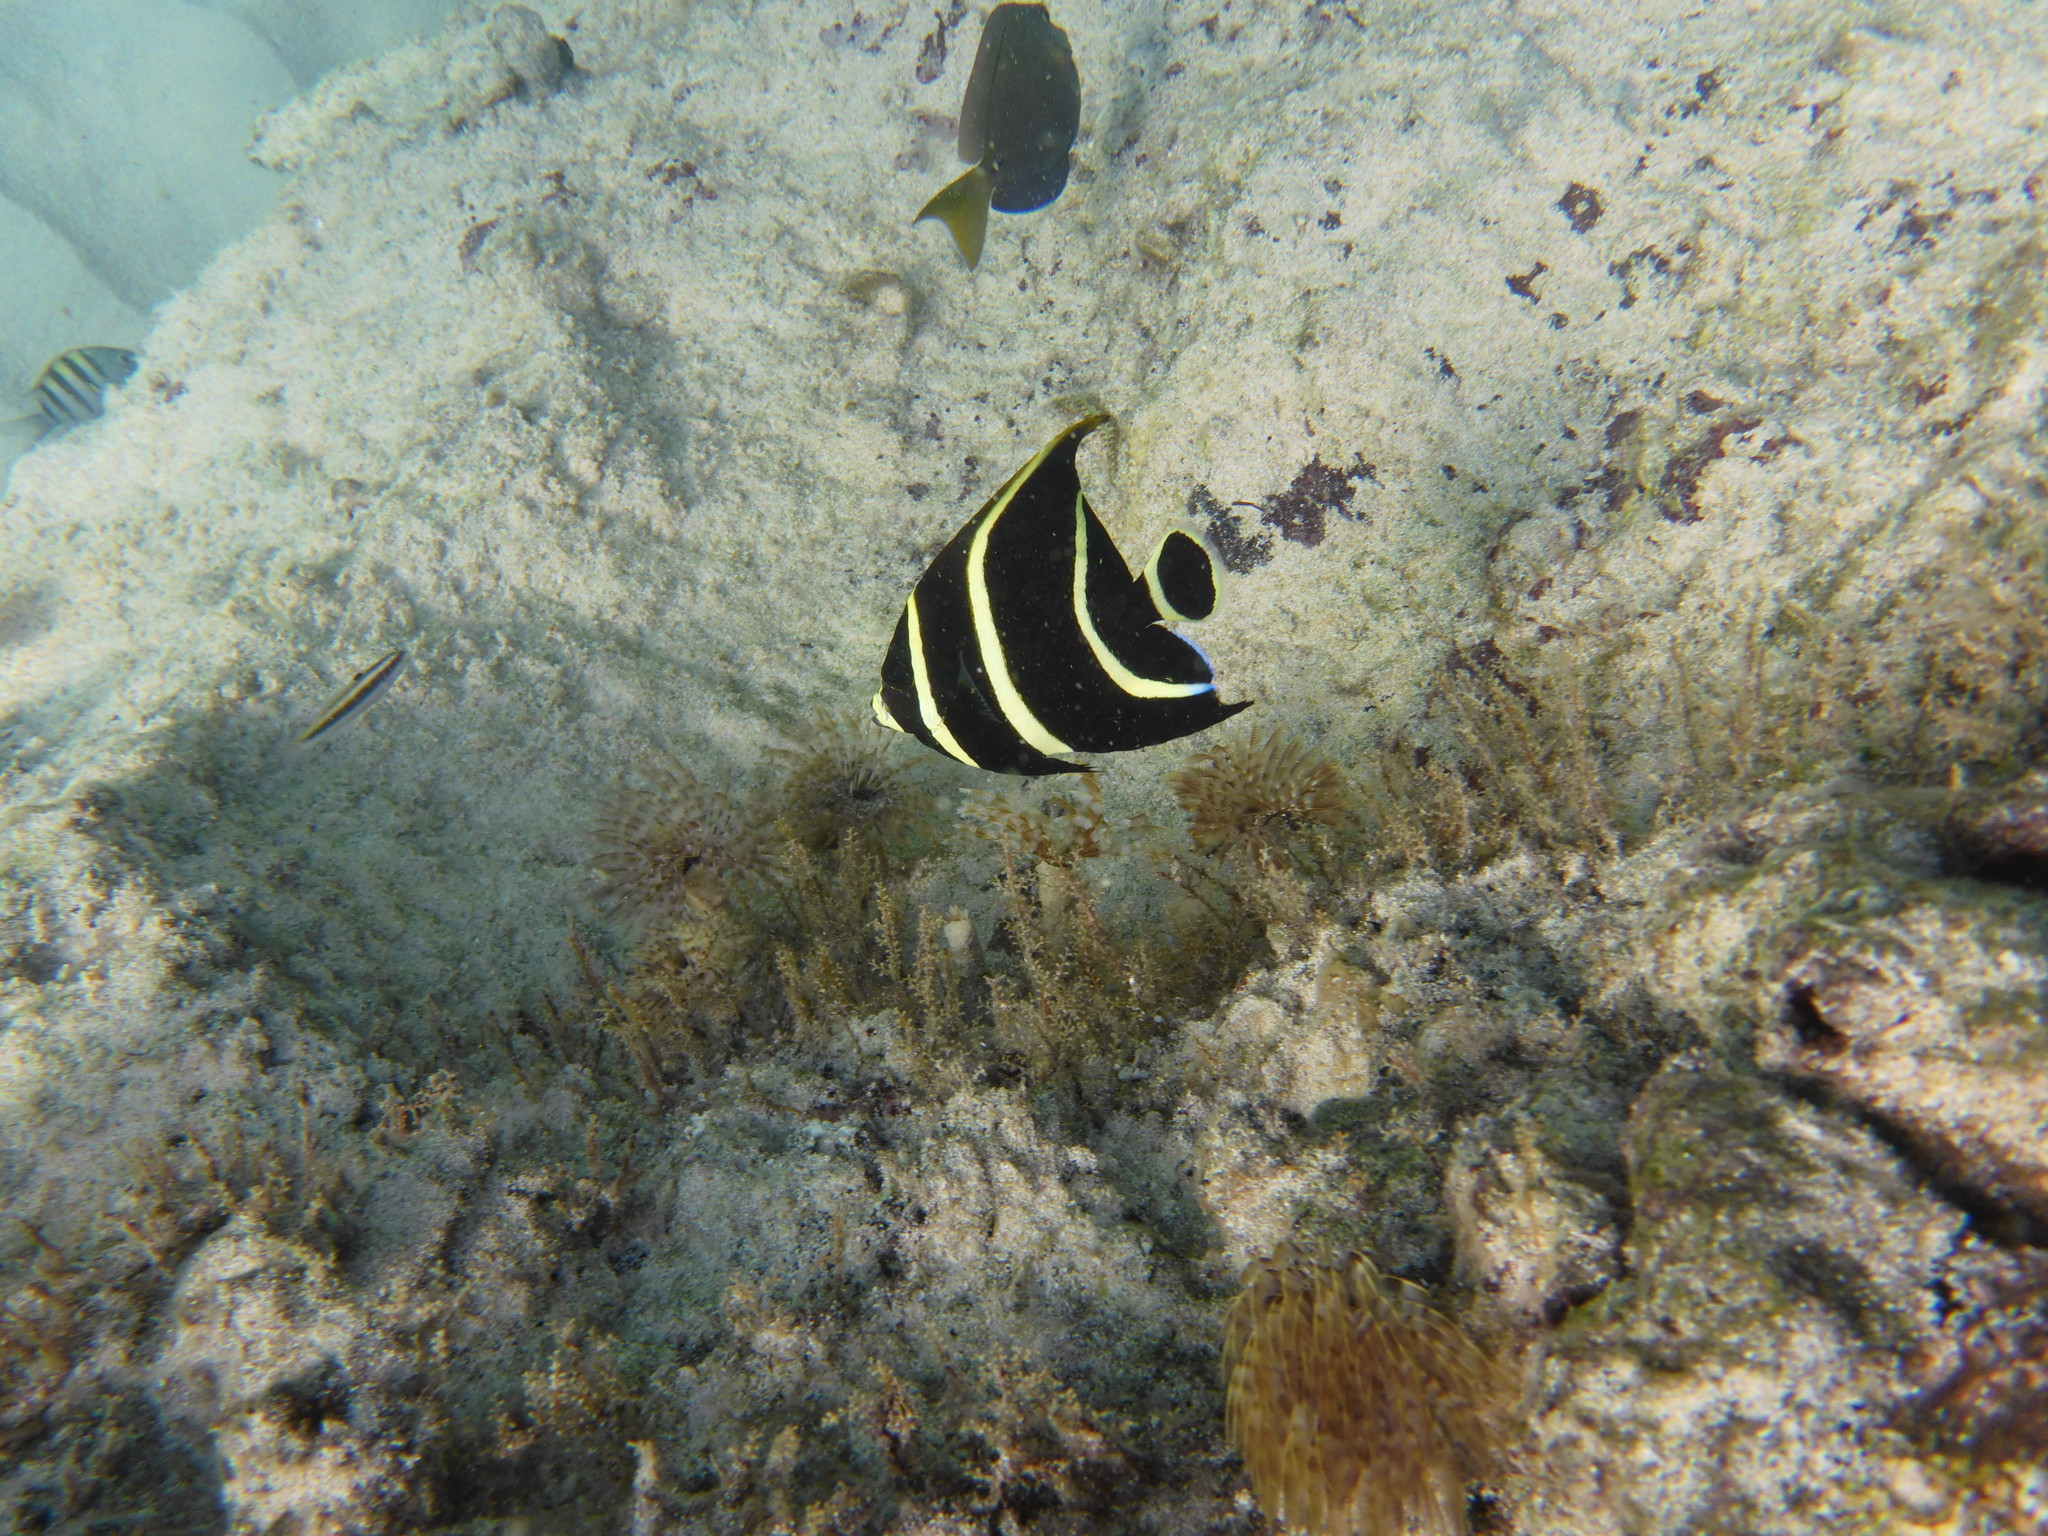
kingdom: Animalia
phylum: Chordata
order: Perciformes
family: Pomacanthidae
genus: Pomacanthus
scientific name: Pomacanthus paru
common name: French angelfish
